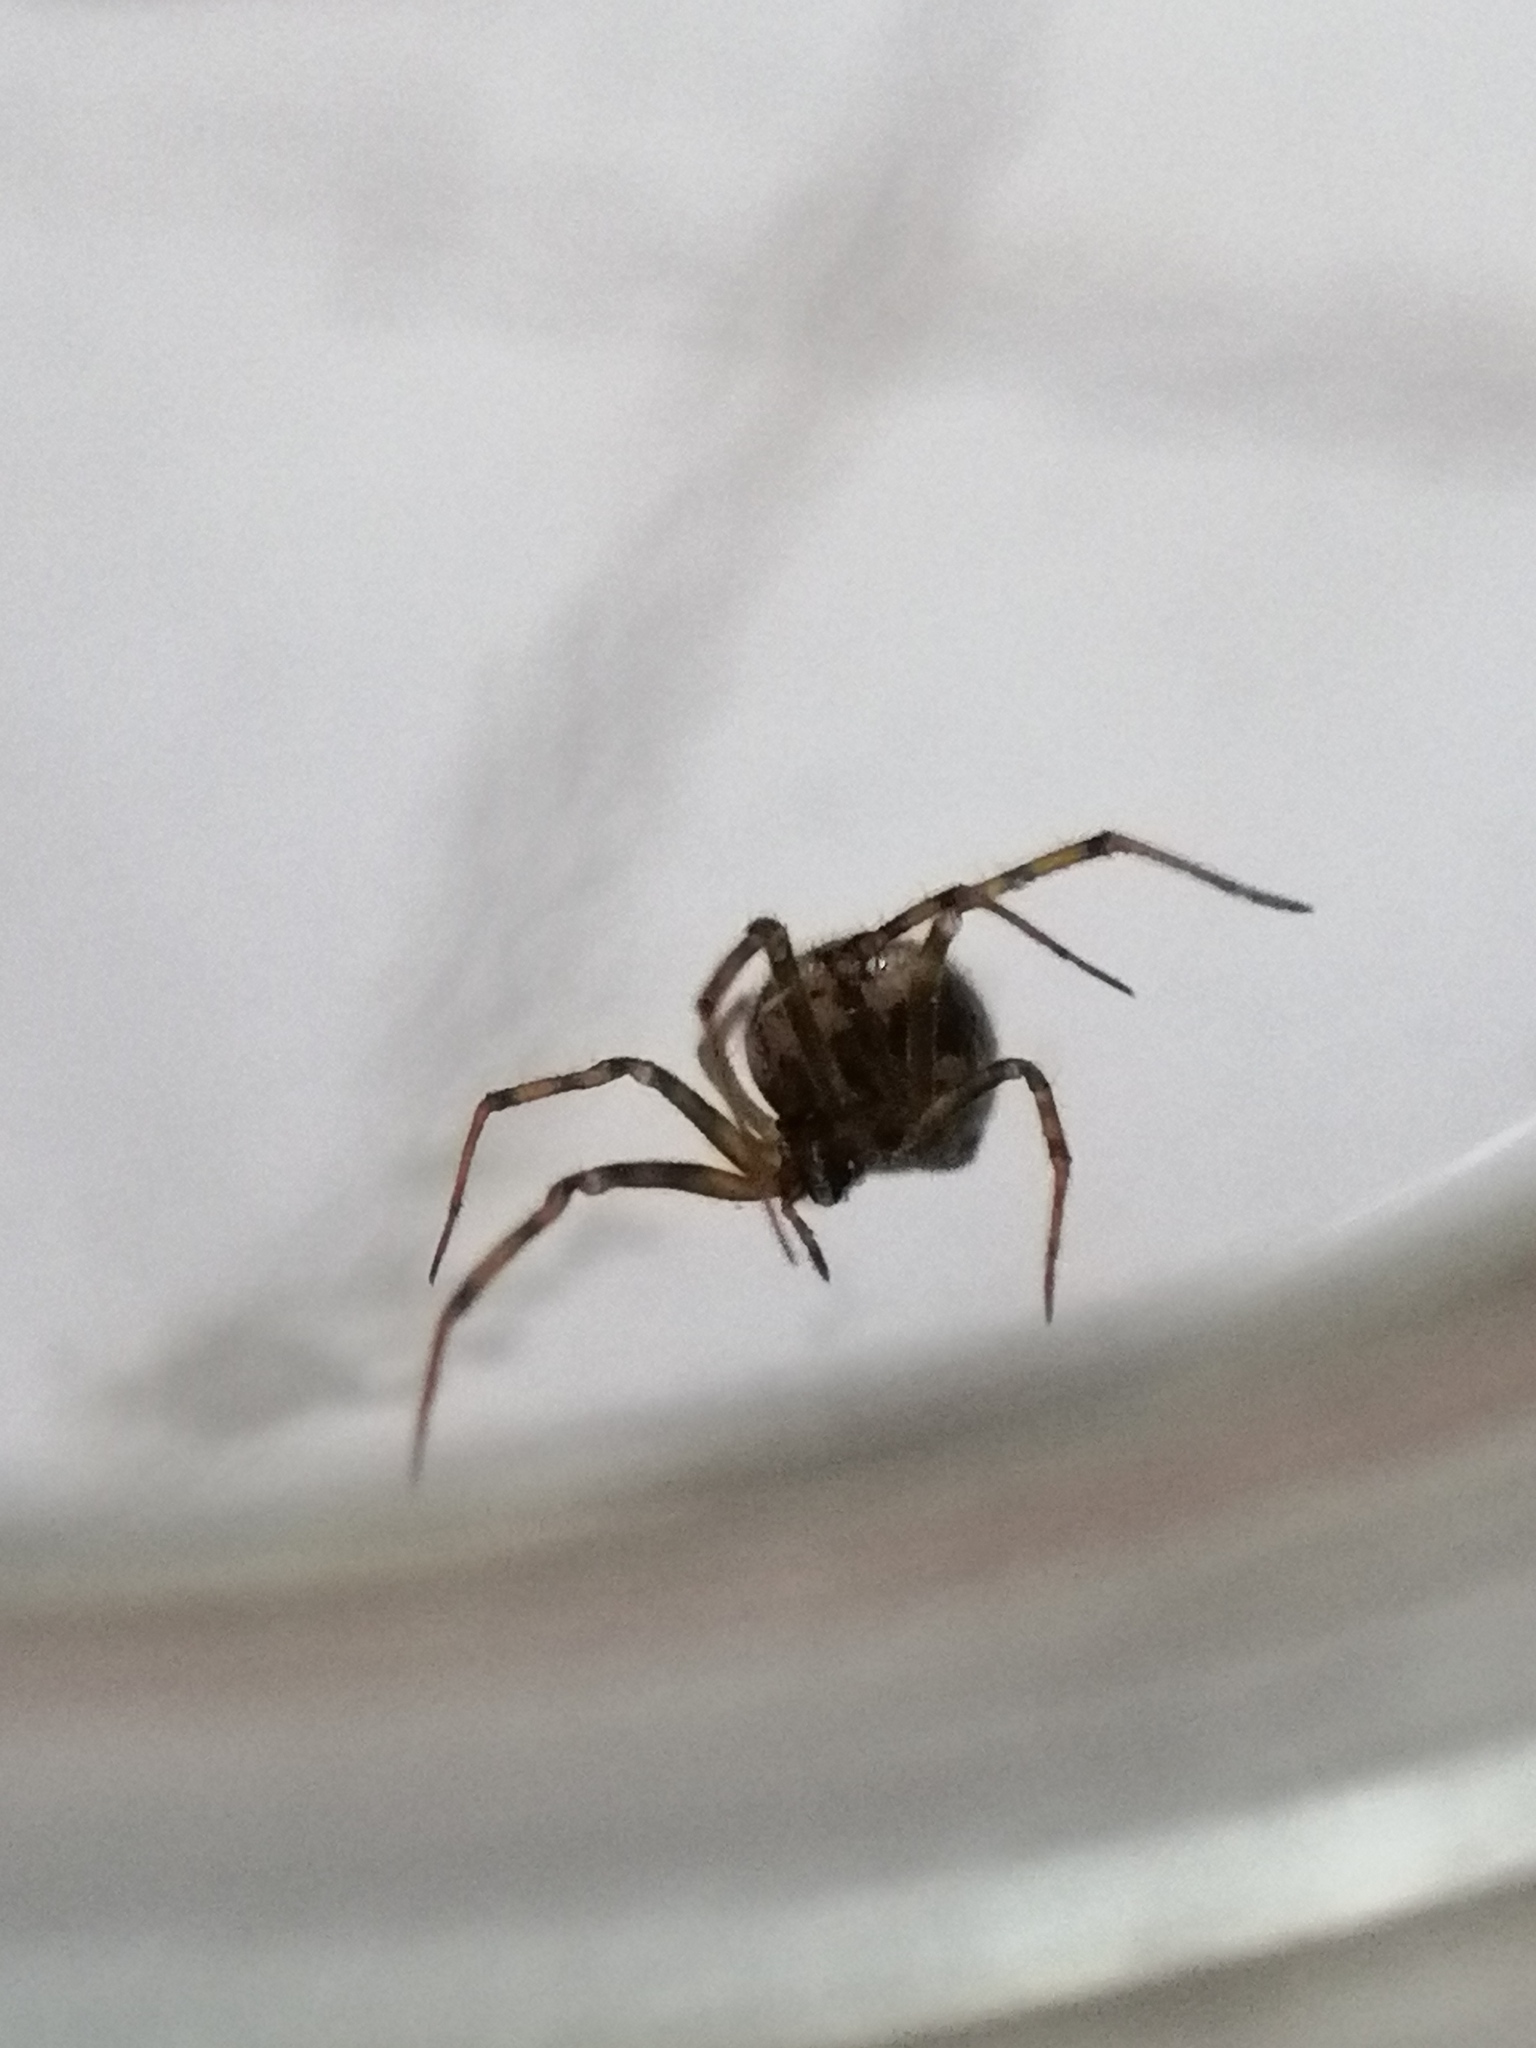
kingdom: Animalia
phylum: Arthropoda
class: Arachnida
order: Araneae
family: Theridiidae
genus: Steatoda
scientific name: Steatoda triangulosa
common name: Triangulate bud spider
